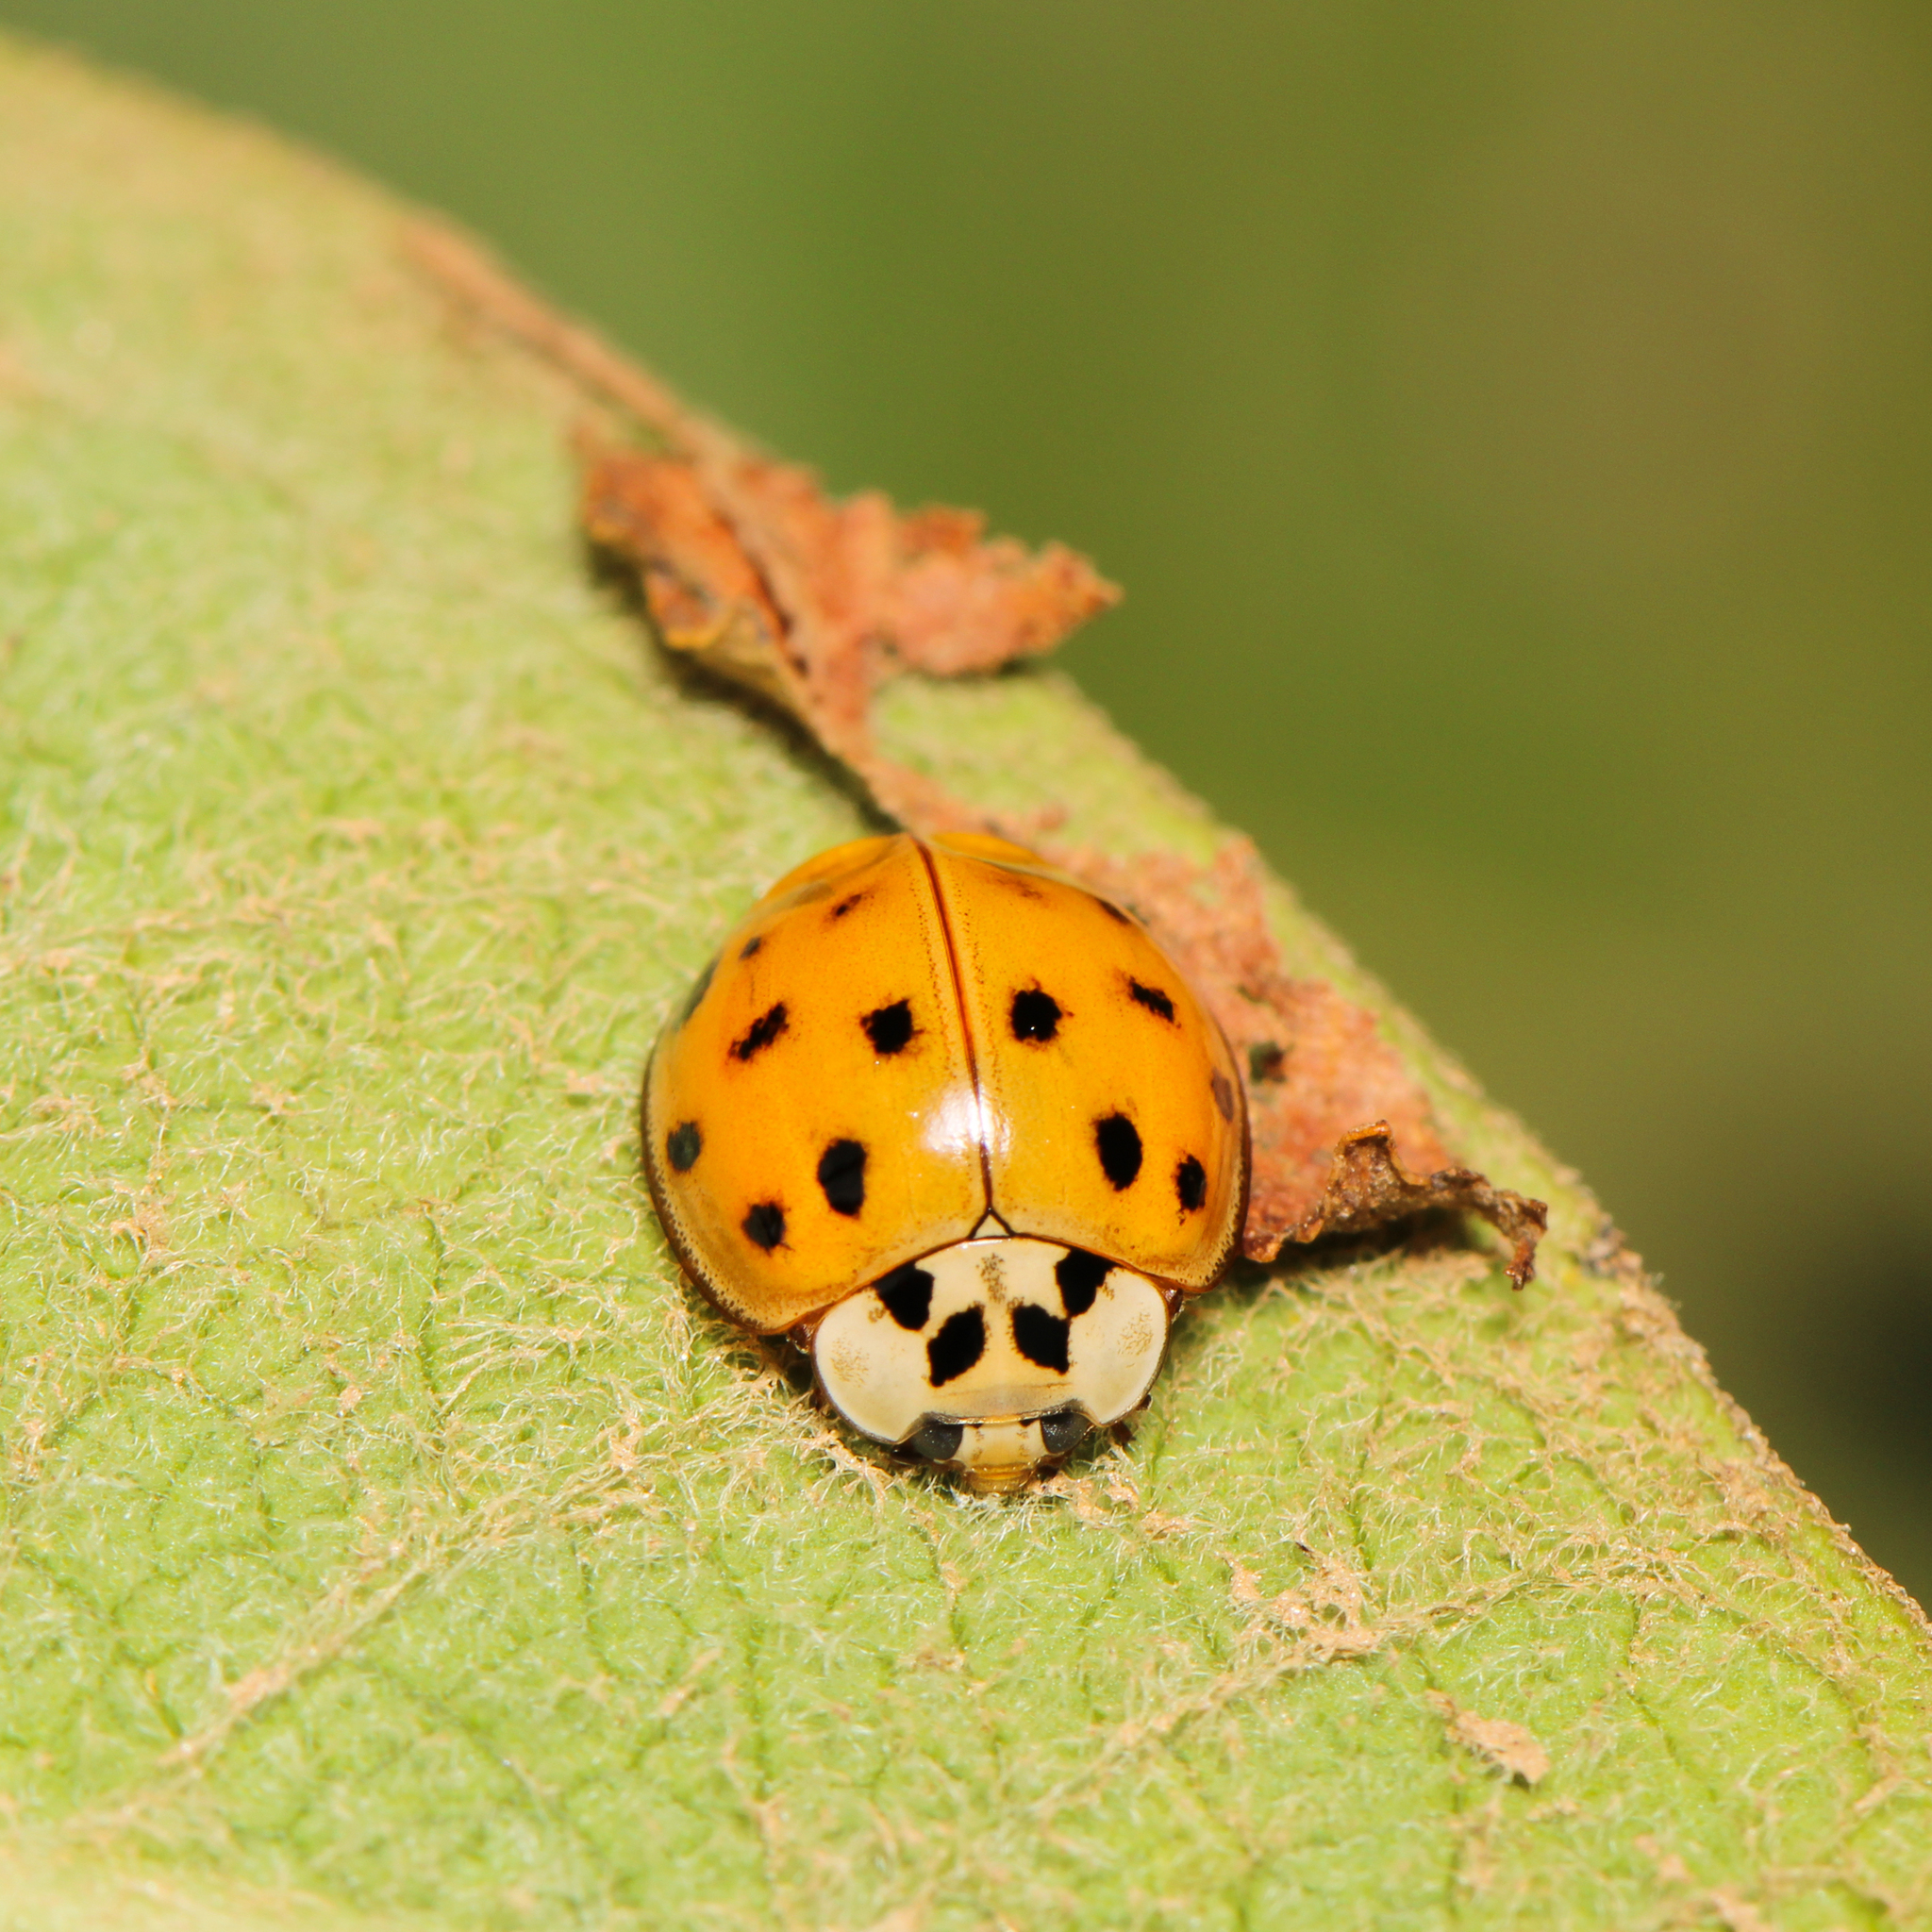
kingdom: Animalia
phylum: Arthropoda
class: Insecta
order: Coleoptera
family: Coccinellidae
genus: Harmonia
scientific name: Harmonia axyridis
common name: Harlequin ladybird
